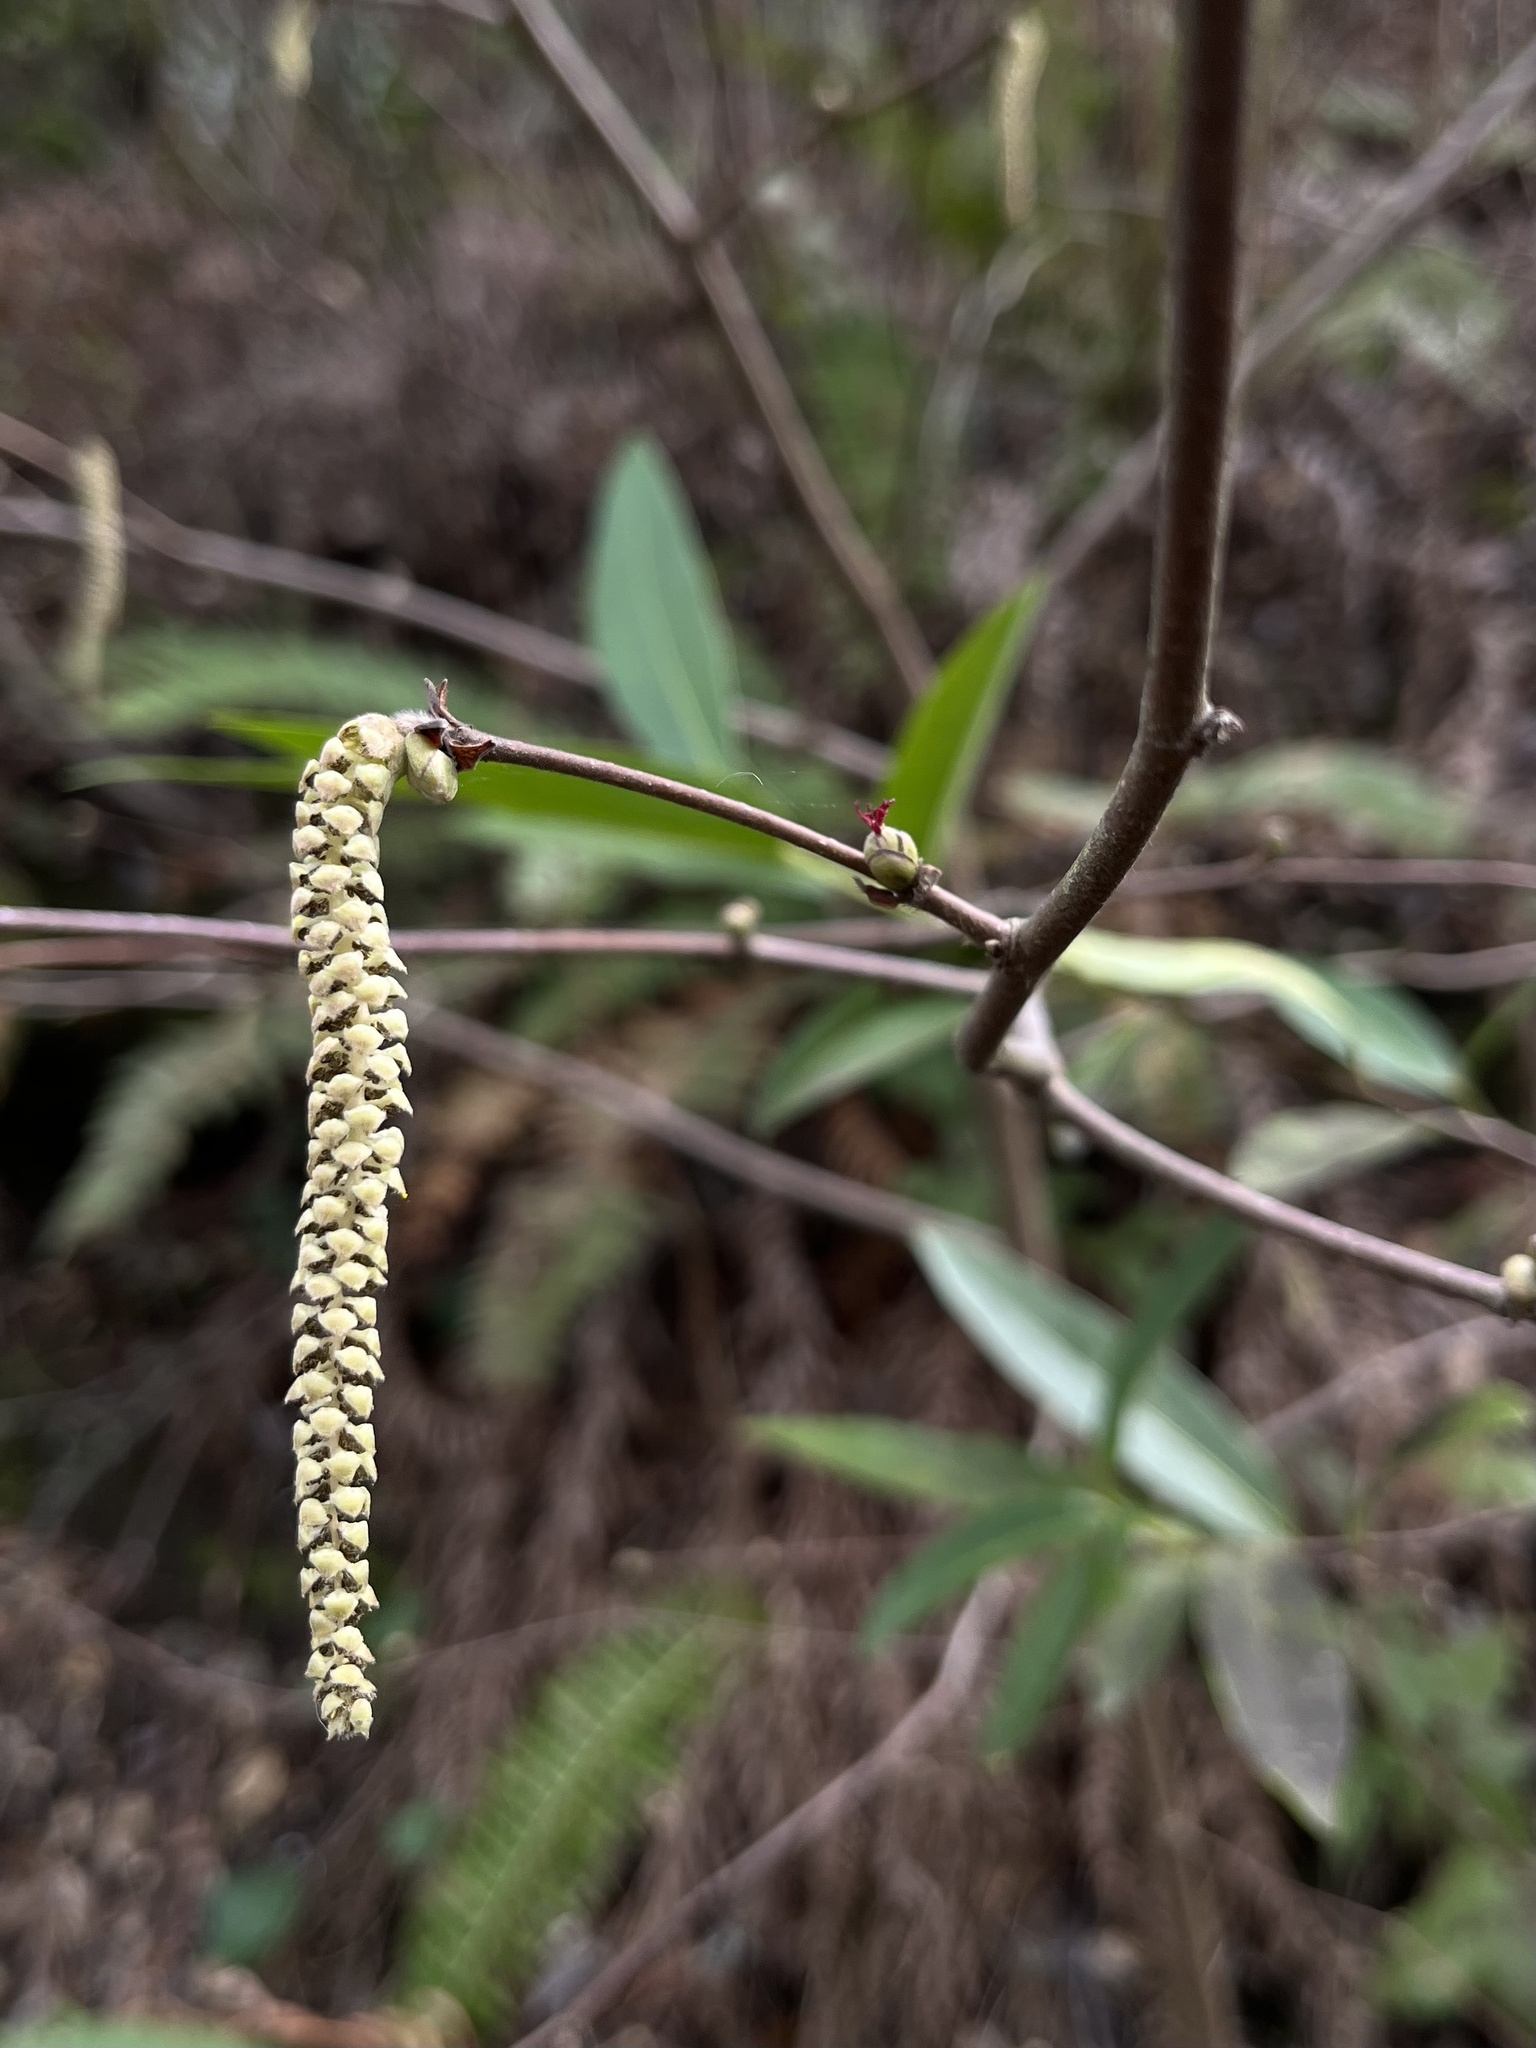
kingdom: Plantae
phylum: Tracheophyta
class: Magnoliopsida
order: Fagales
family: Betulaceae
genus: Corylus
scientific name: Corylus cornuta
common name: Beaked hazel
